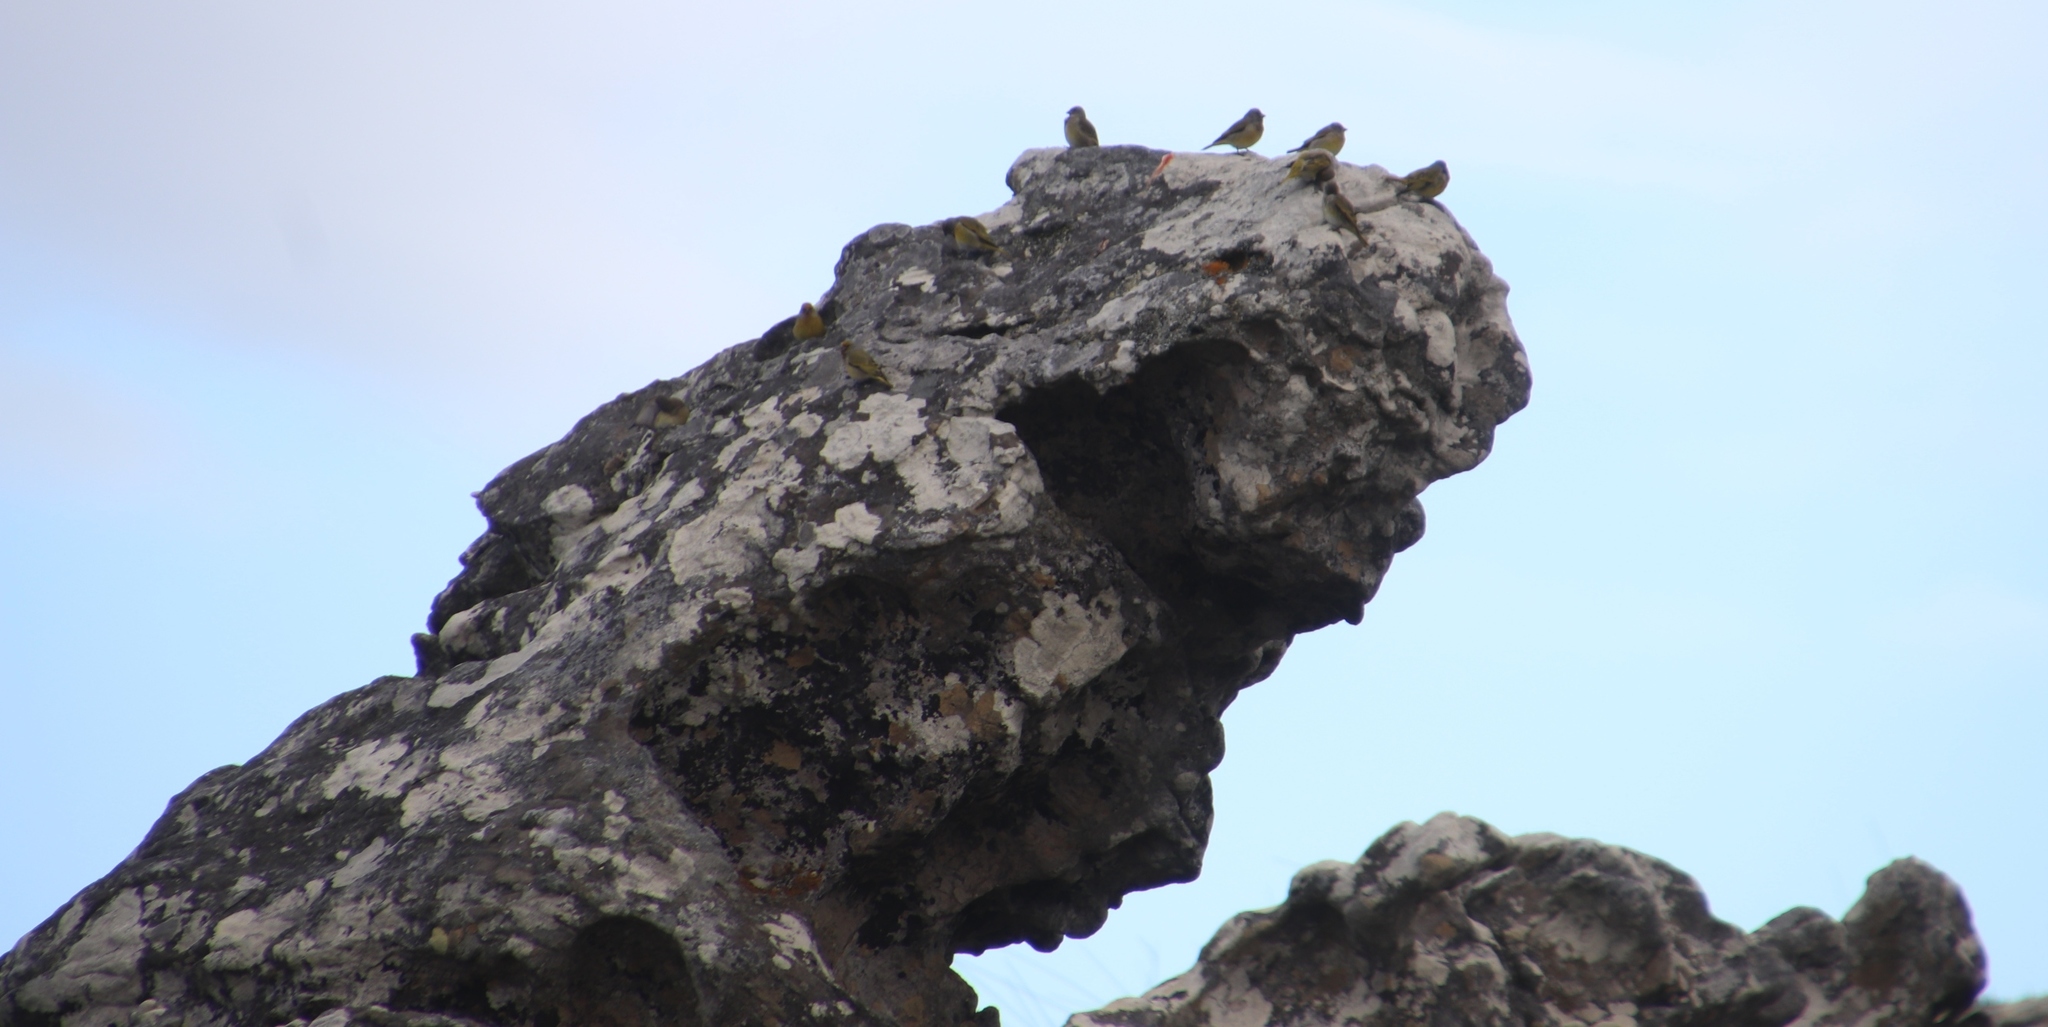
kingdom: Animalia
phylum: Chordata
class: Aves
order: Passeriformes
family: Fringillidae
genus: Crithagra
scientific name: Crithagra totta
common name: Cape siskin
